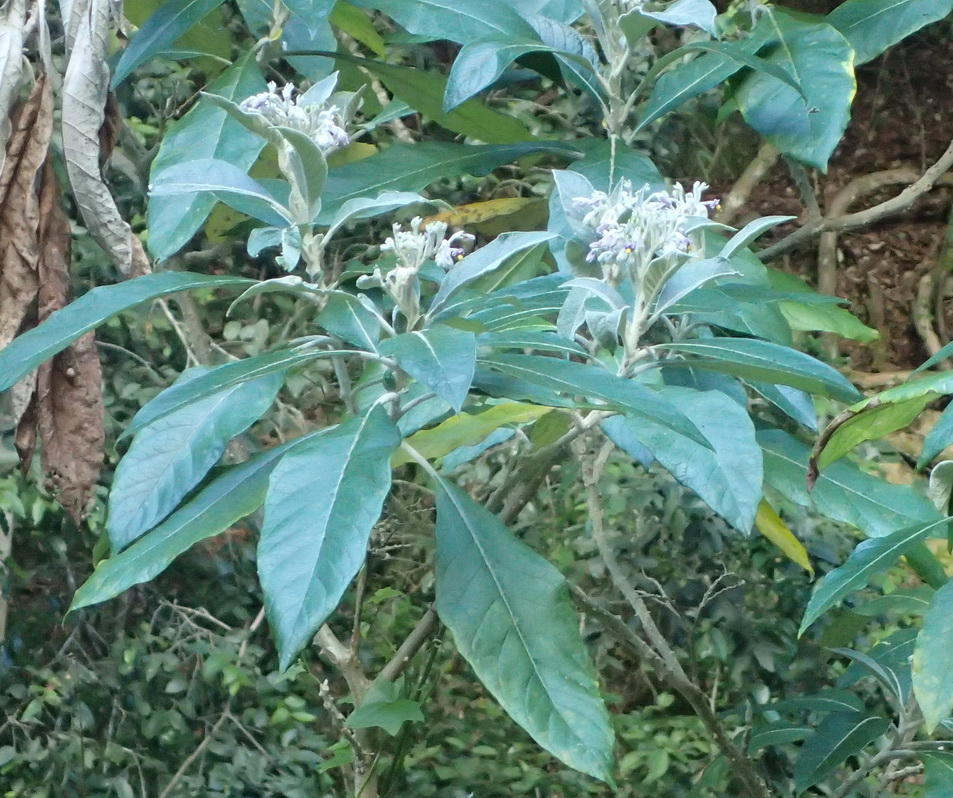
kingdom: Plantae
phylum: Tracheophyta
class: Magnoliopsida
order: Solanales
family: Solanaceae
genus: Solanum
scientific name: Solanum giganteum
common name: Healing-leaf-tree
